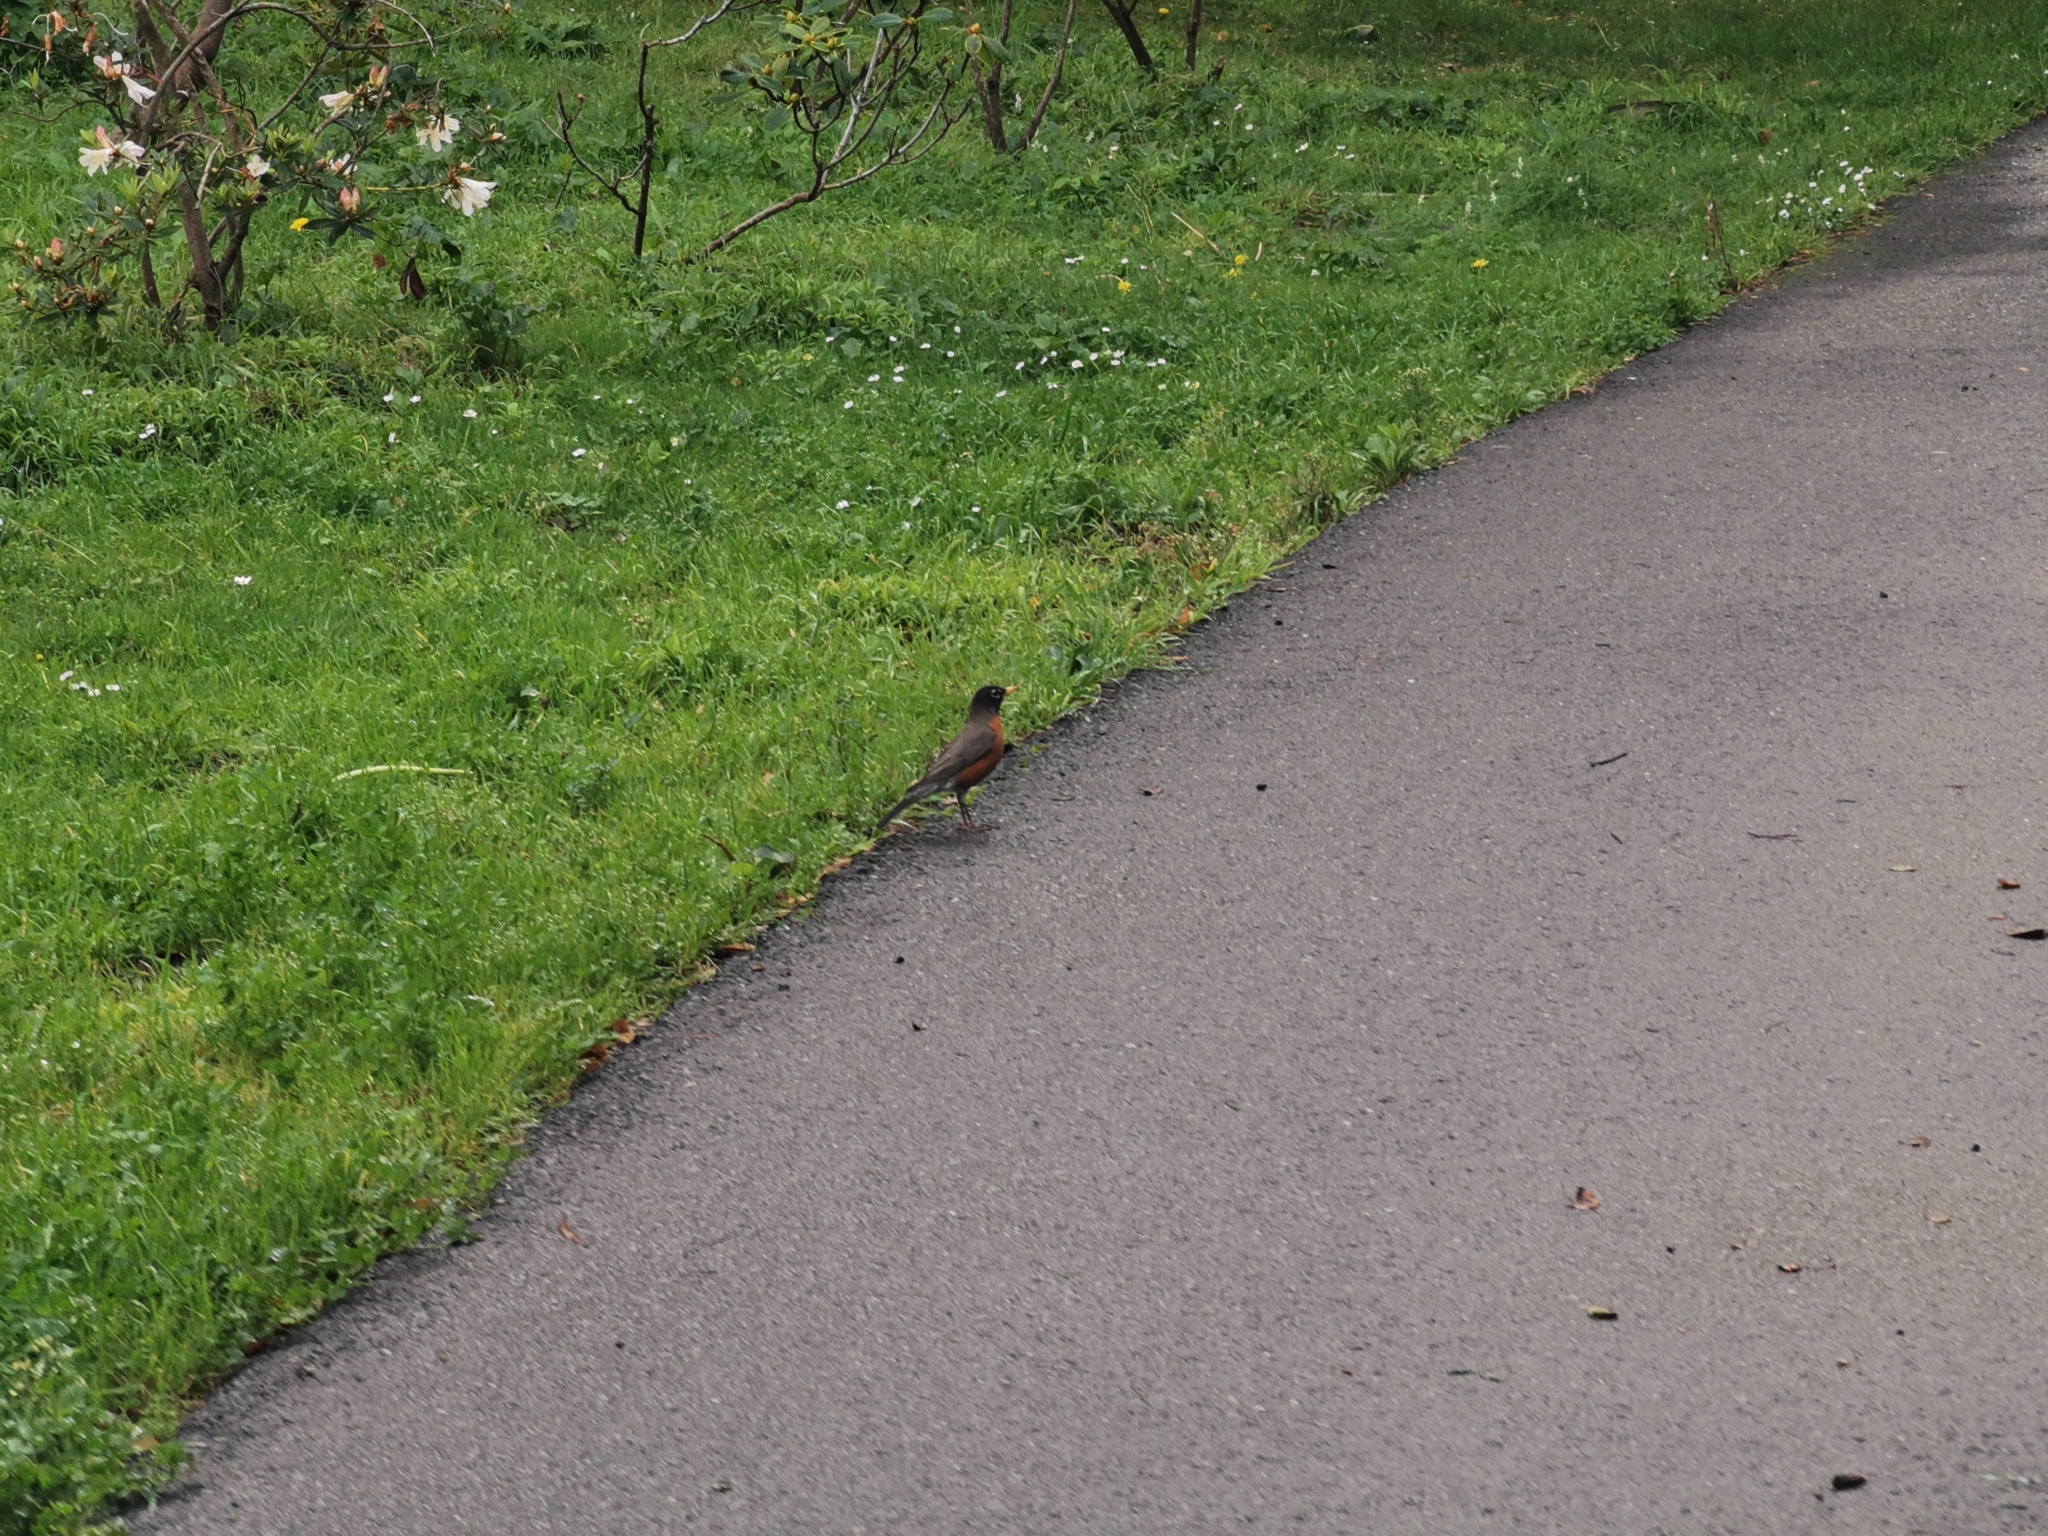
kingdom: Animalia
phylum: Chordata
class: Aves
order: Passeriformes
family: Turdidae
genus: Turdus
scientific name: Turdus migratorius
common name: American robin
